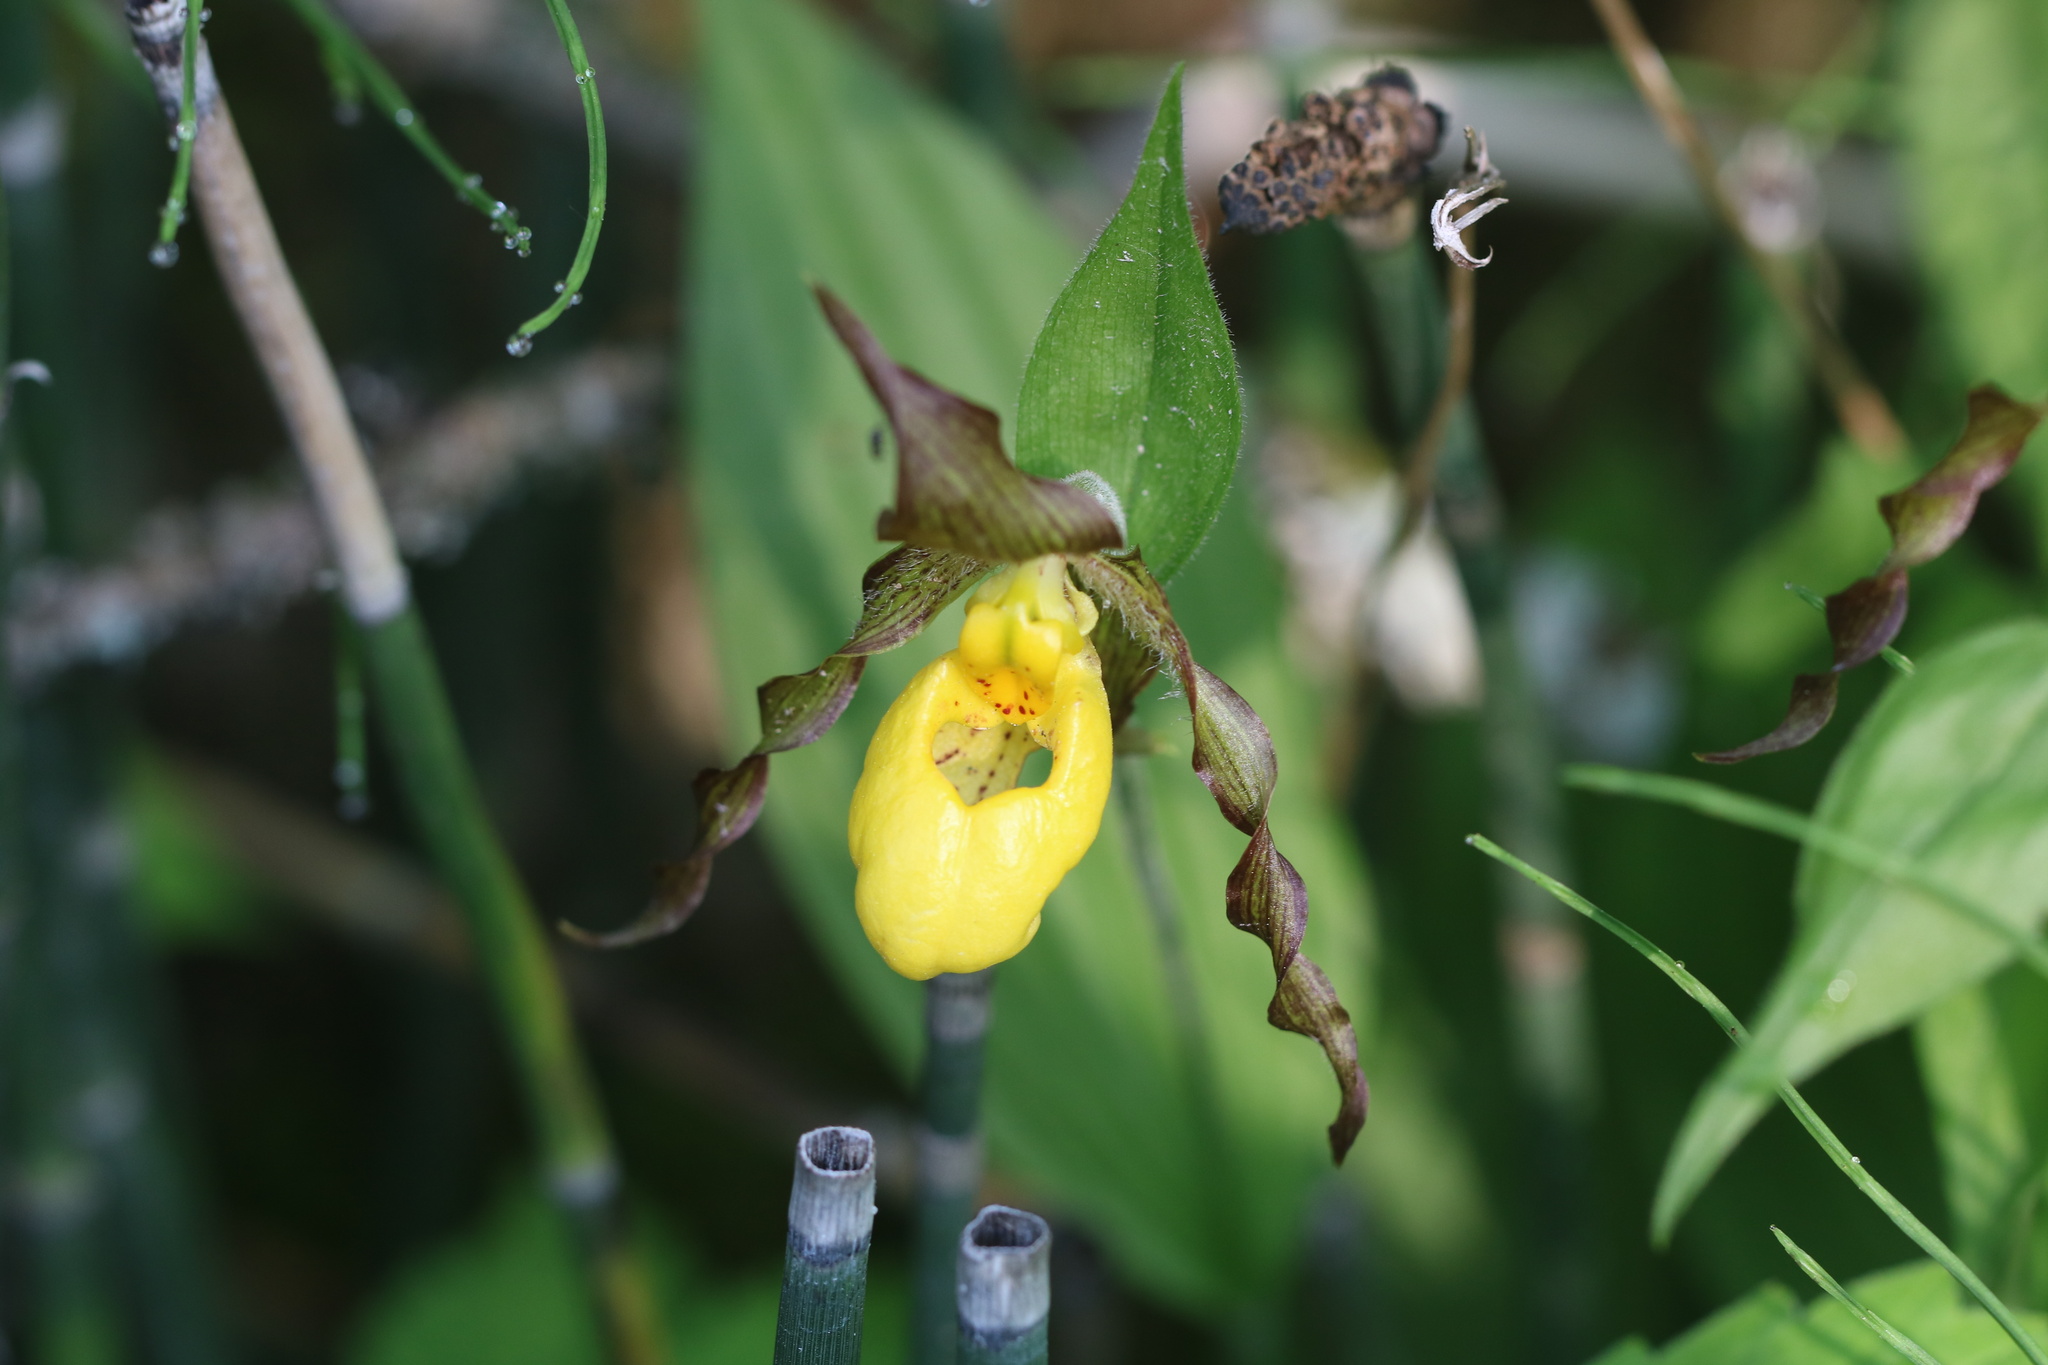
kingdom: Plantae
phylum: Tracheophyta
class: Liliopsida
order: Asparagales
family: Orchidaceae
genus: Cypripedium
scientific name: Cypripedium parviflorum
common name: American yellow lady's-slipper
